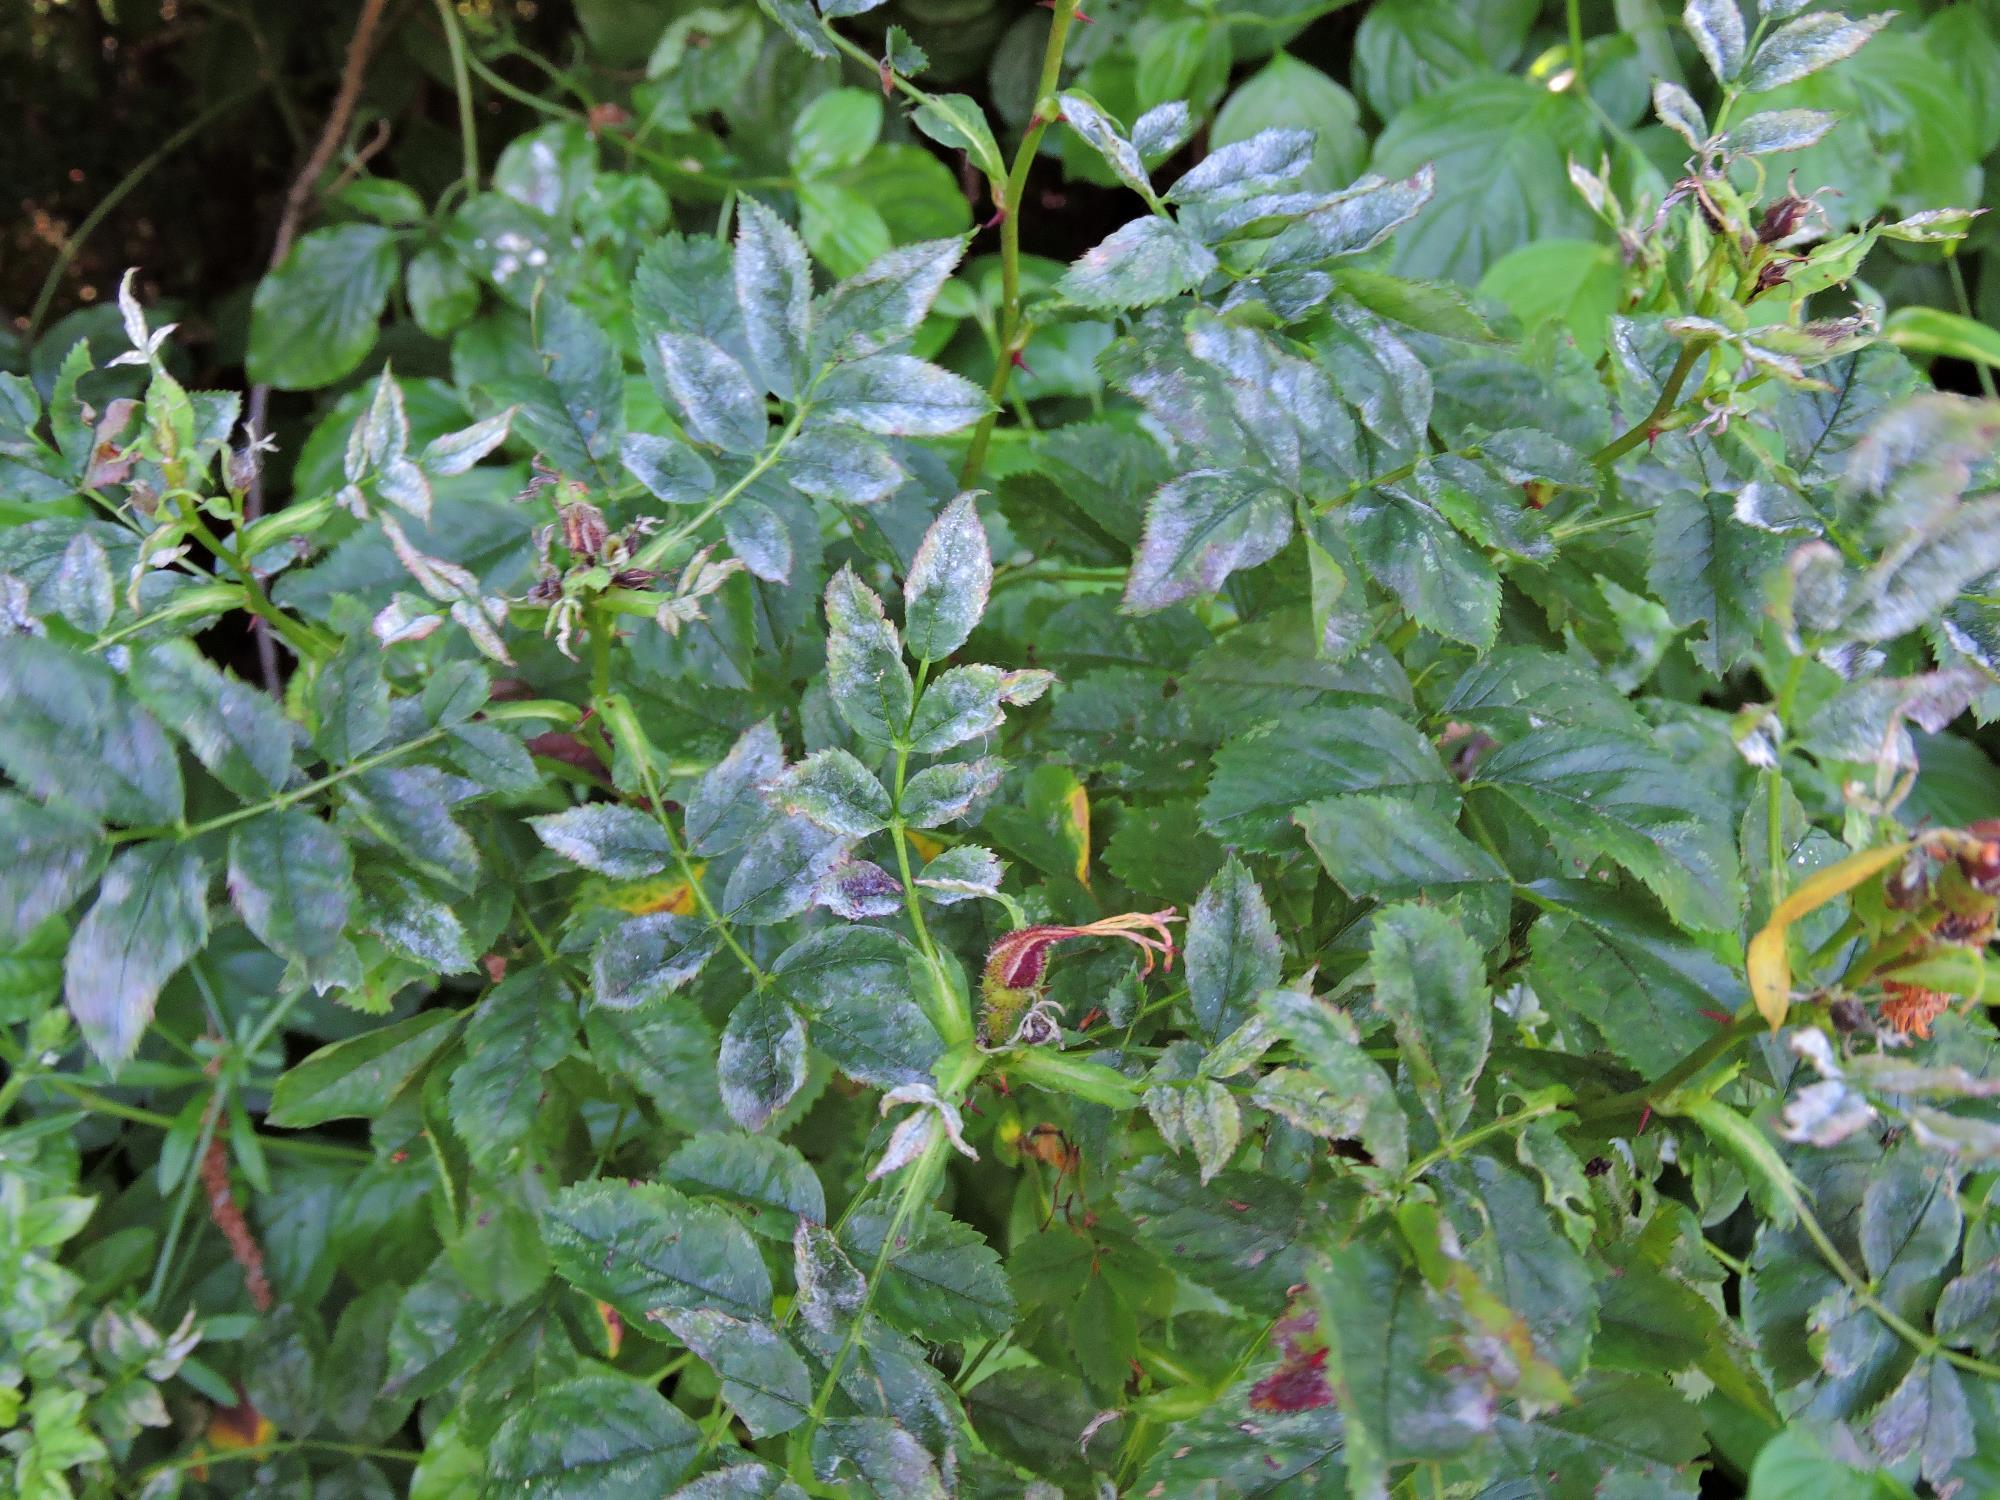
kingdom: Fungi
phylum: Ascomycota
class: Leotiomycetes
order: Helotiales
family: Erysiphaceae
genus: Podosphaera
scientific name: Podosphaera pannosa
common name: Rose mildew
